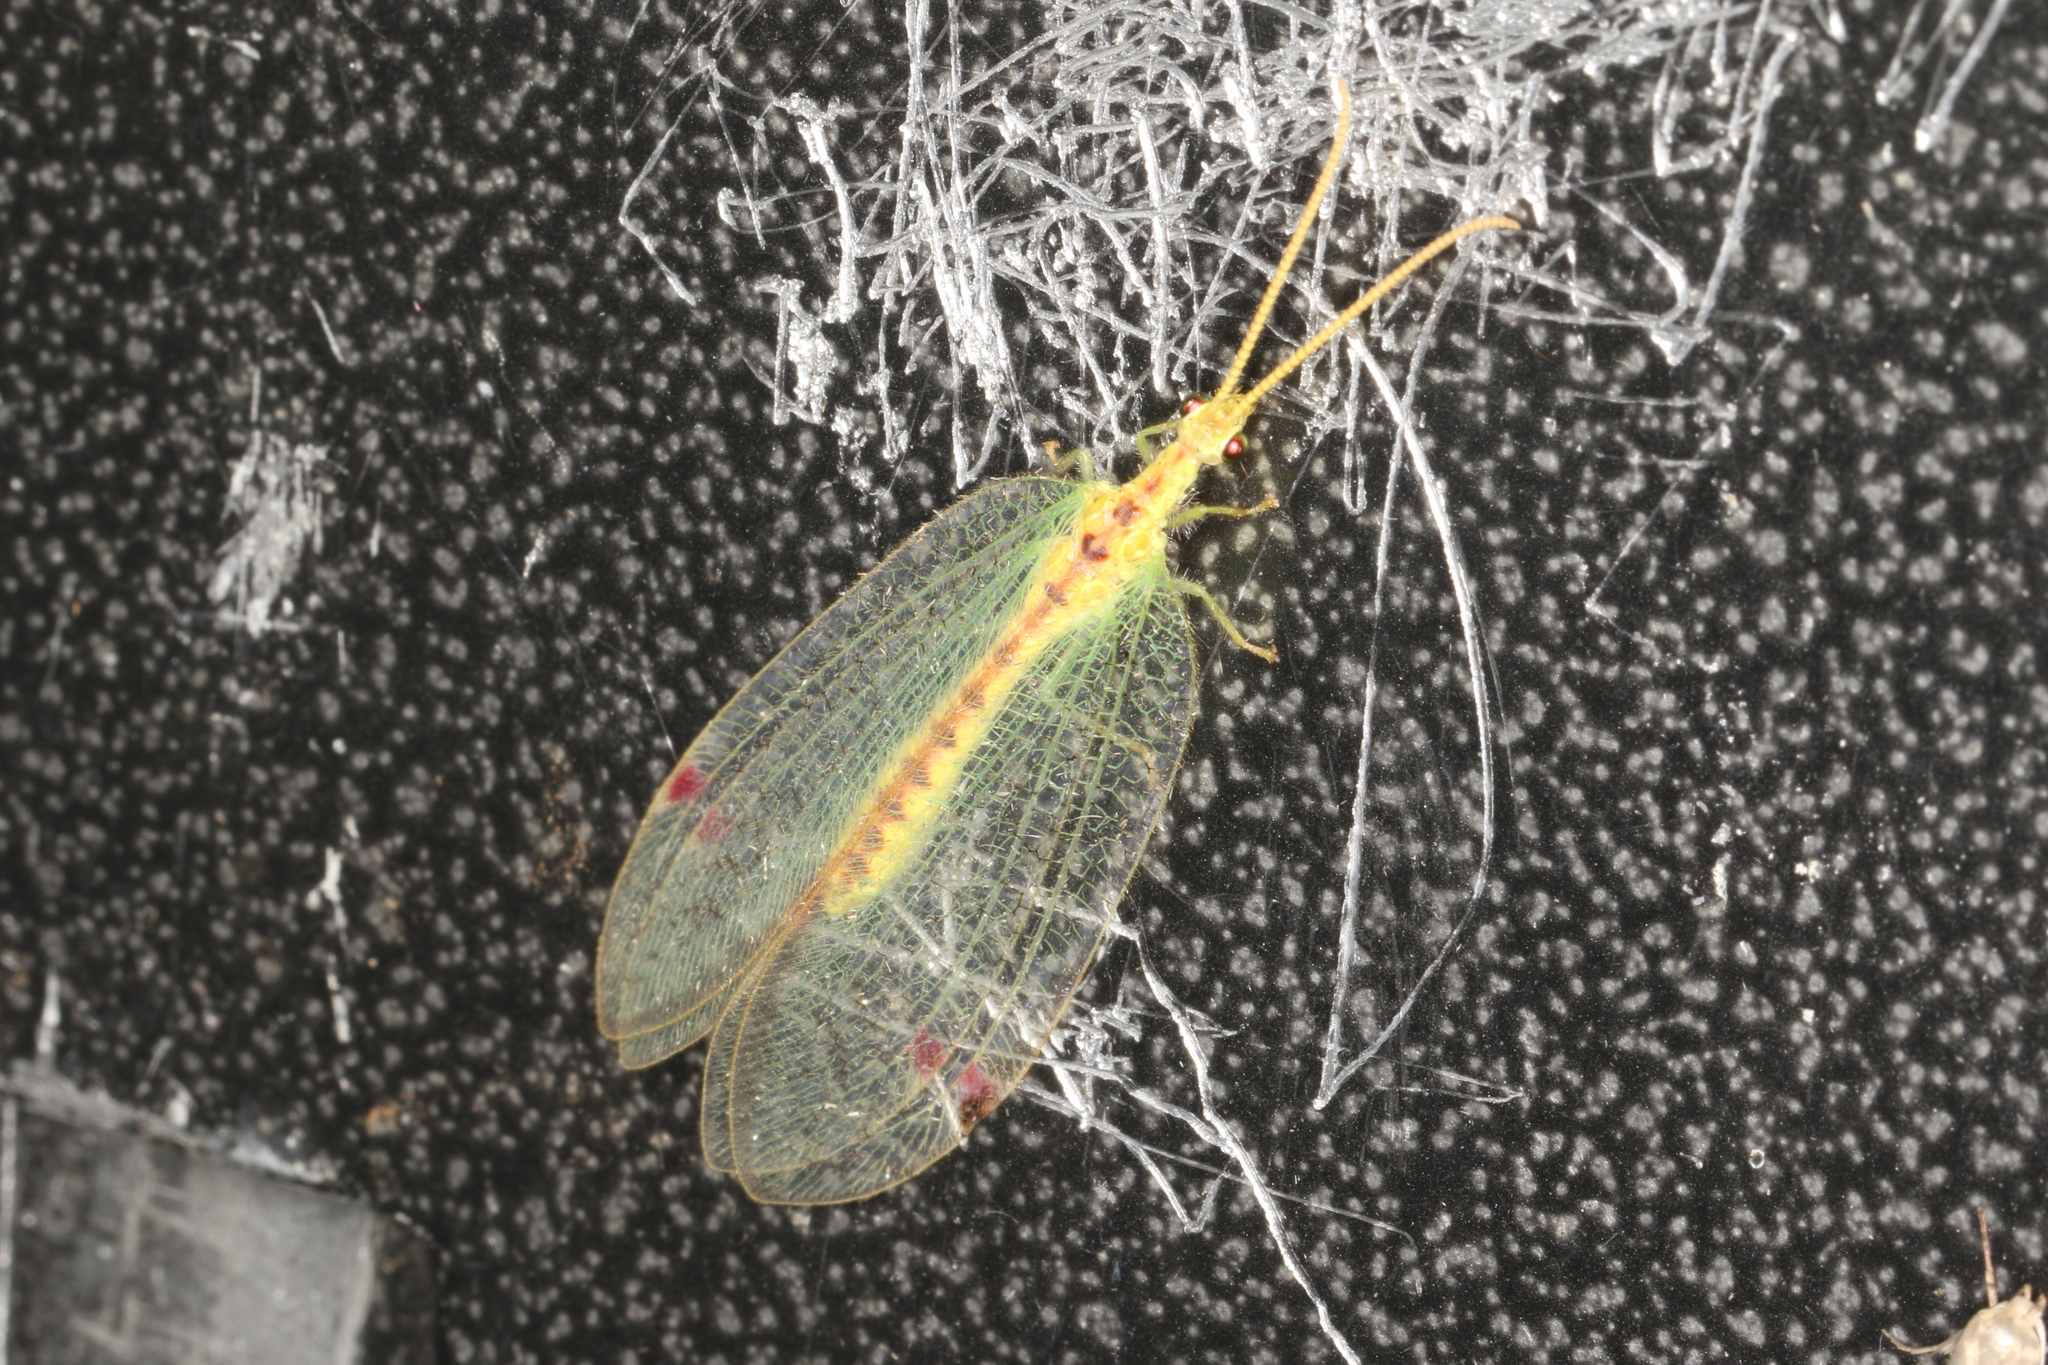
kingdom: Animalia
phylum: Arthropoda
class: Insecta
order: Neuroptera
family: Nymphidae
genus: Norfolius
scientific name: Norfolius howensis
